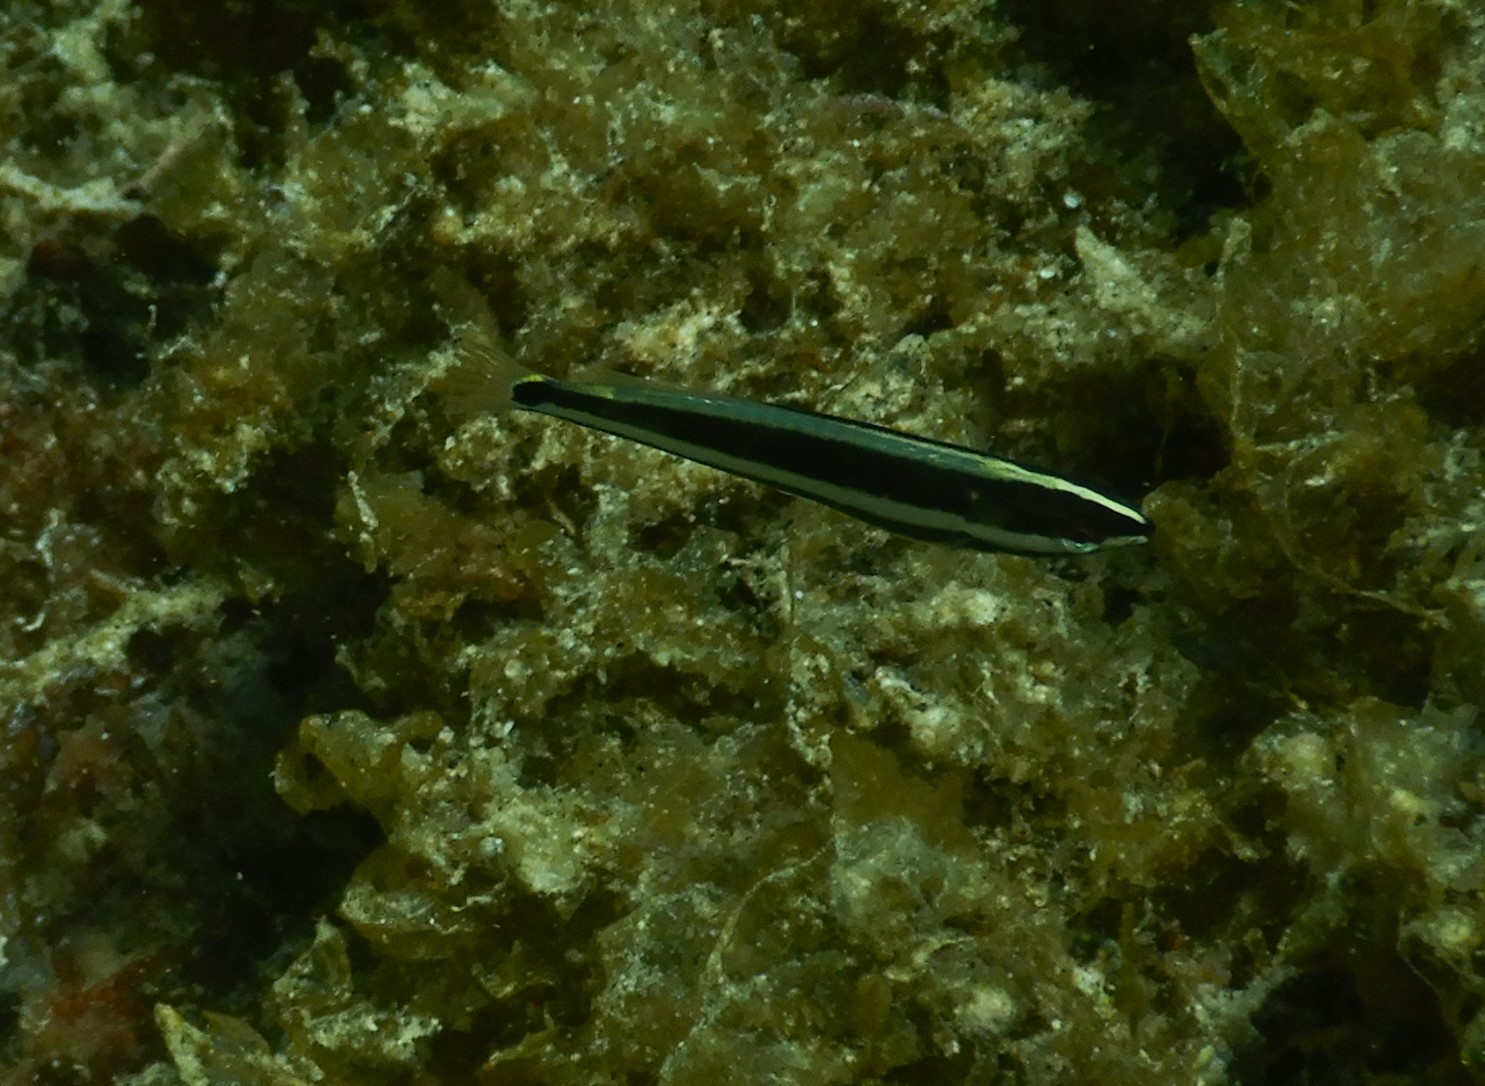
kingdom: Animalia
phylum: Chordata
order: Perciformes
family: Labridae
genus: Coris
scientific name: Coris auricularis
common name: Western king wrasse
